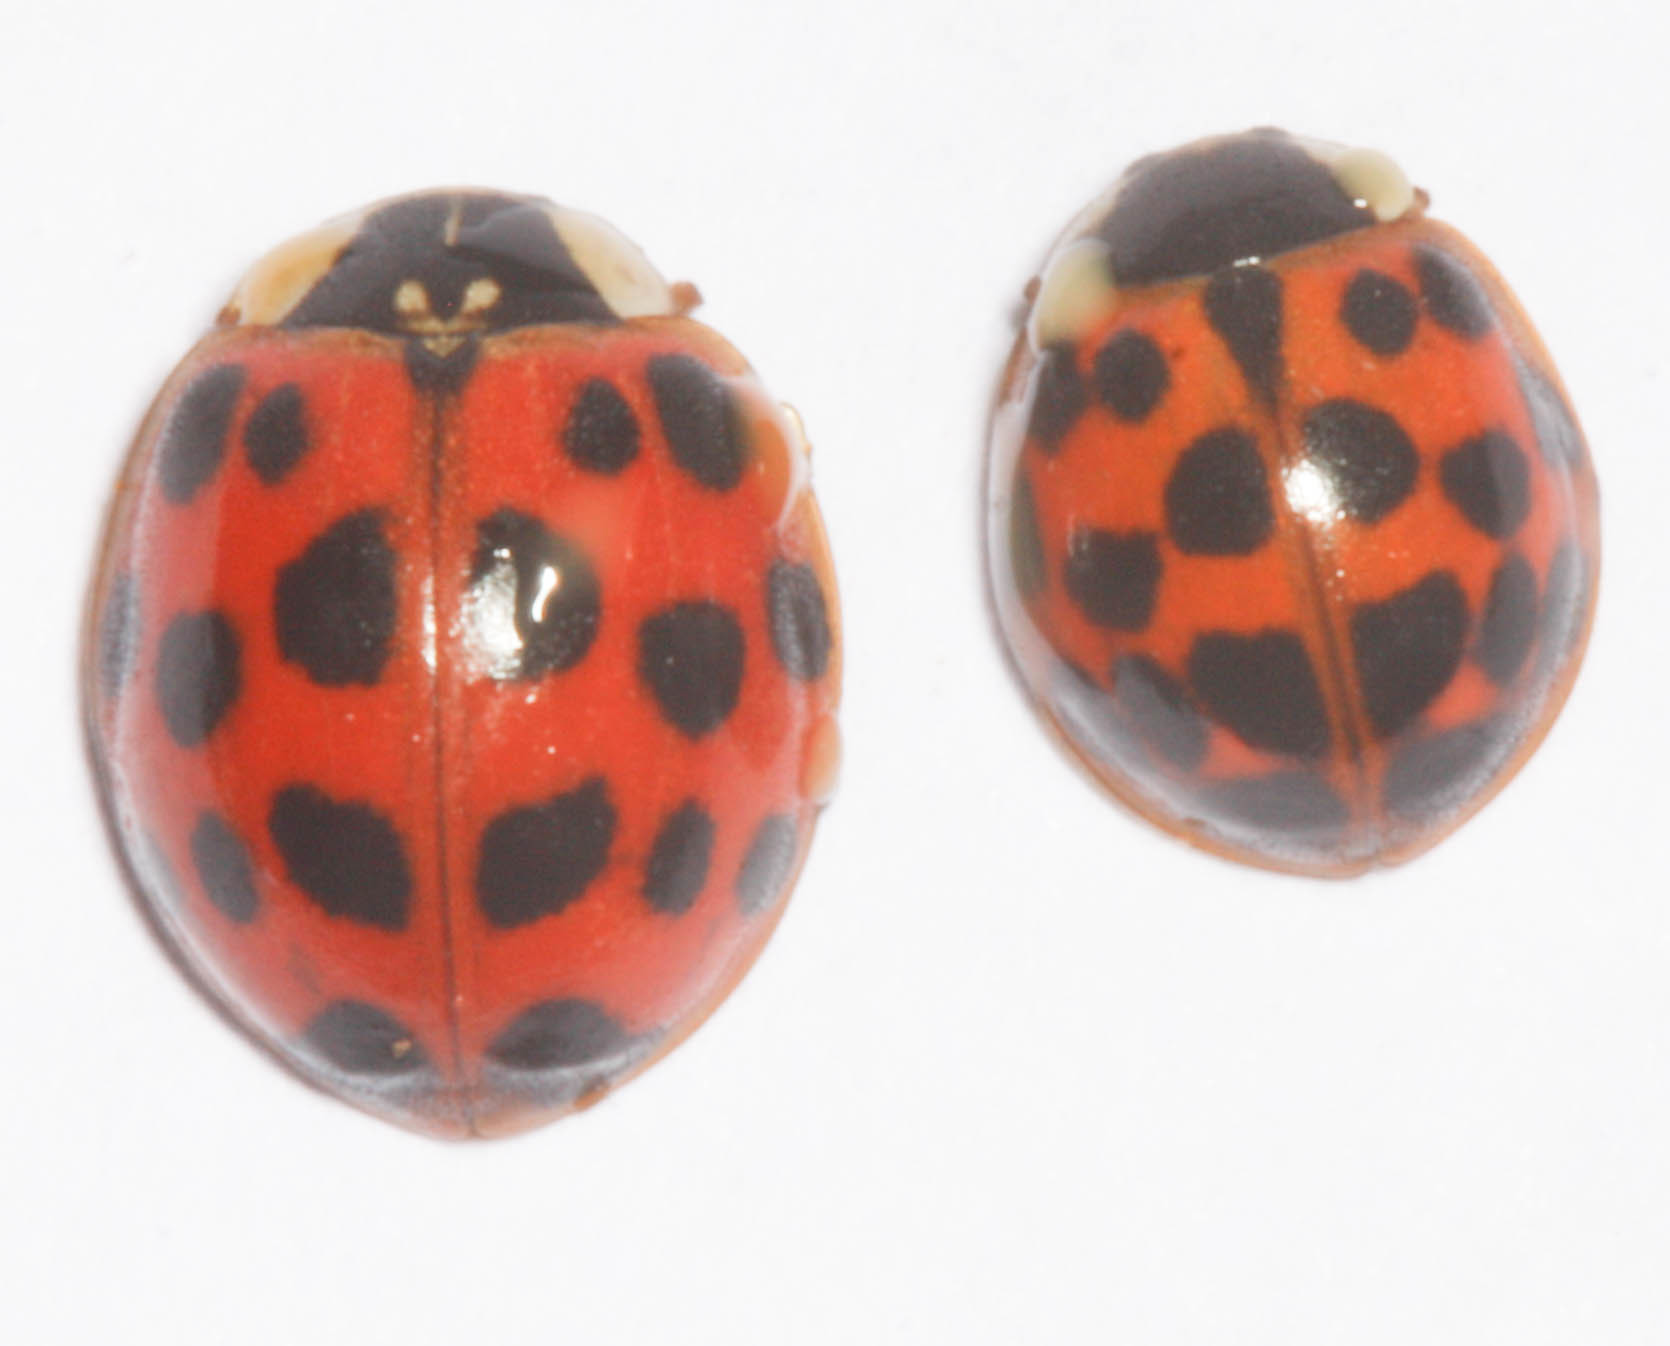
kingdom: Animalia
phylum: Arthropoda
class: Insecta
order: Coleoptera
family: Coccinellidae
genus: Harmonia
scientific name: Harmonia axyridis
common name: Harlequin ladybird
